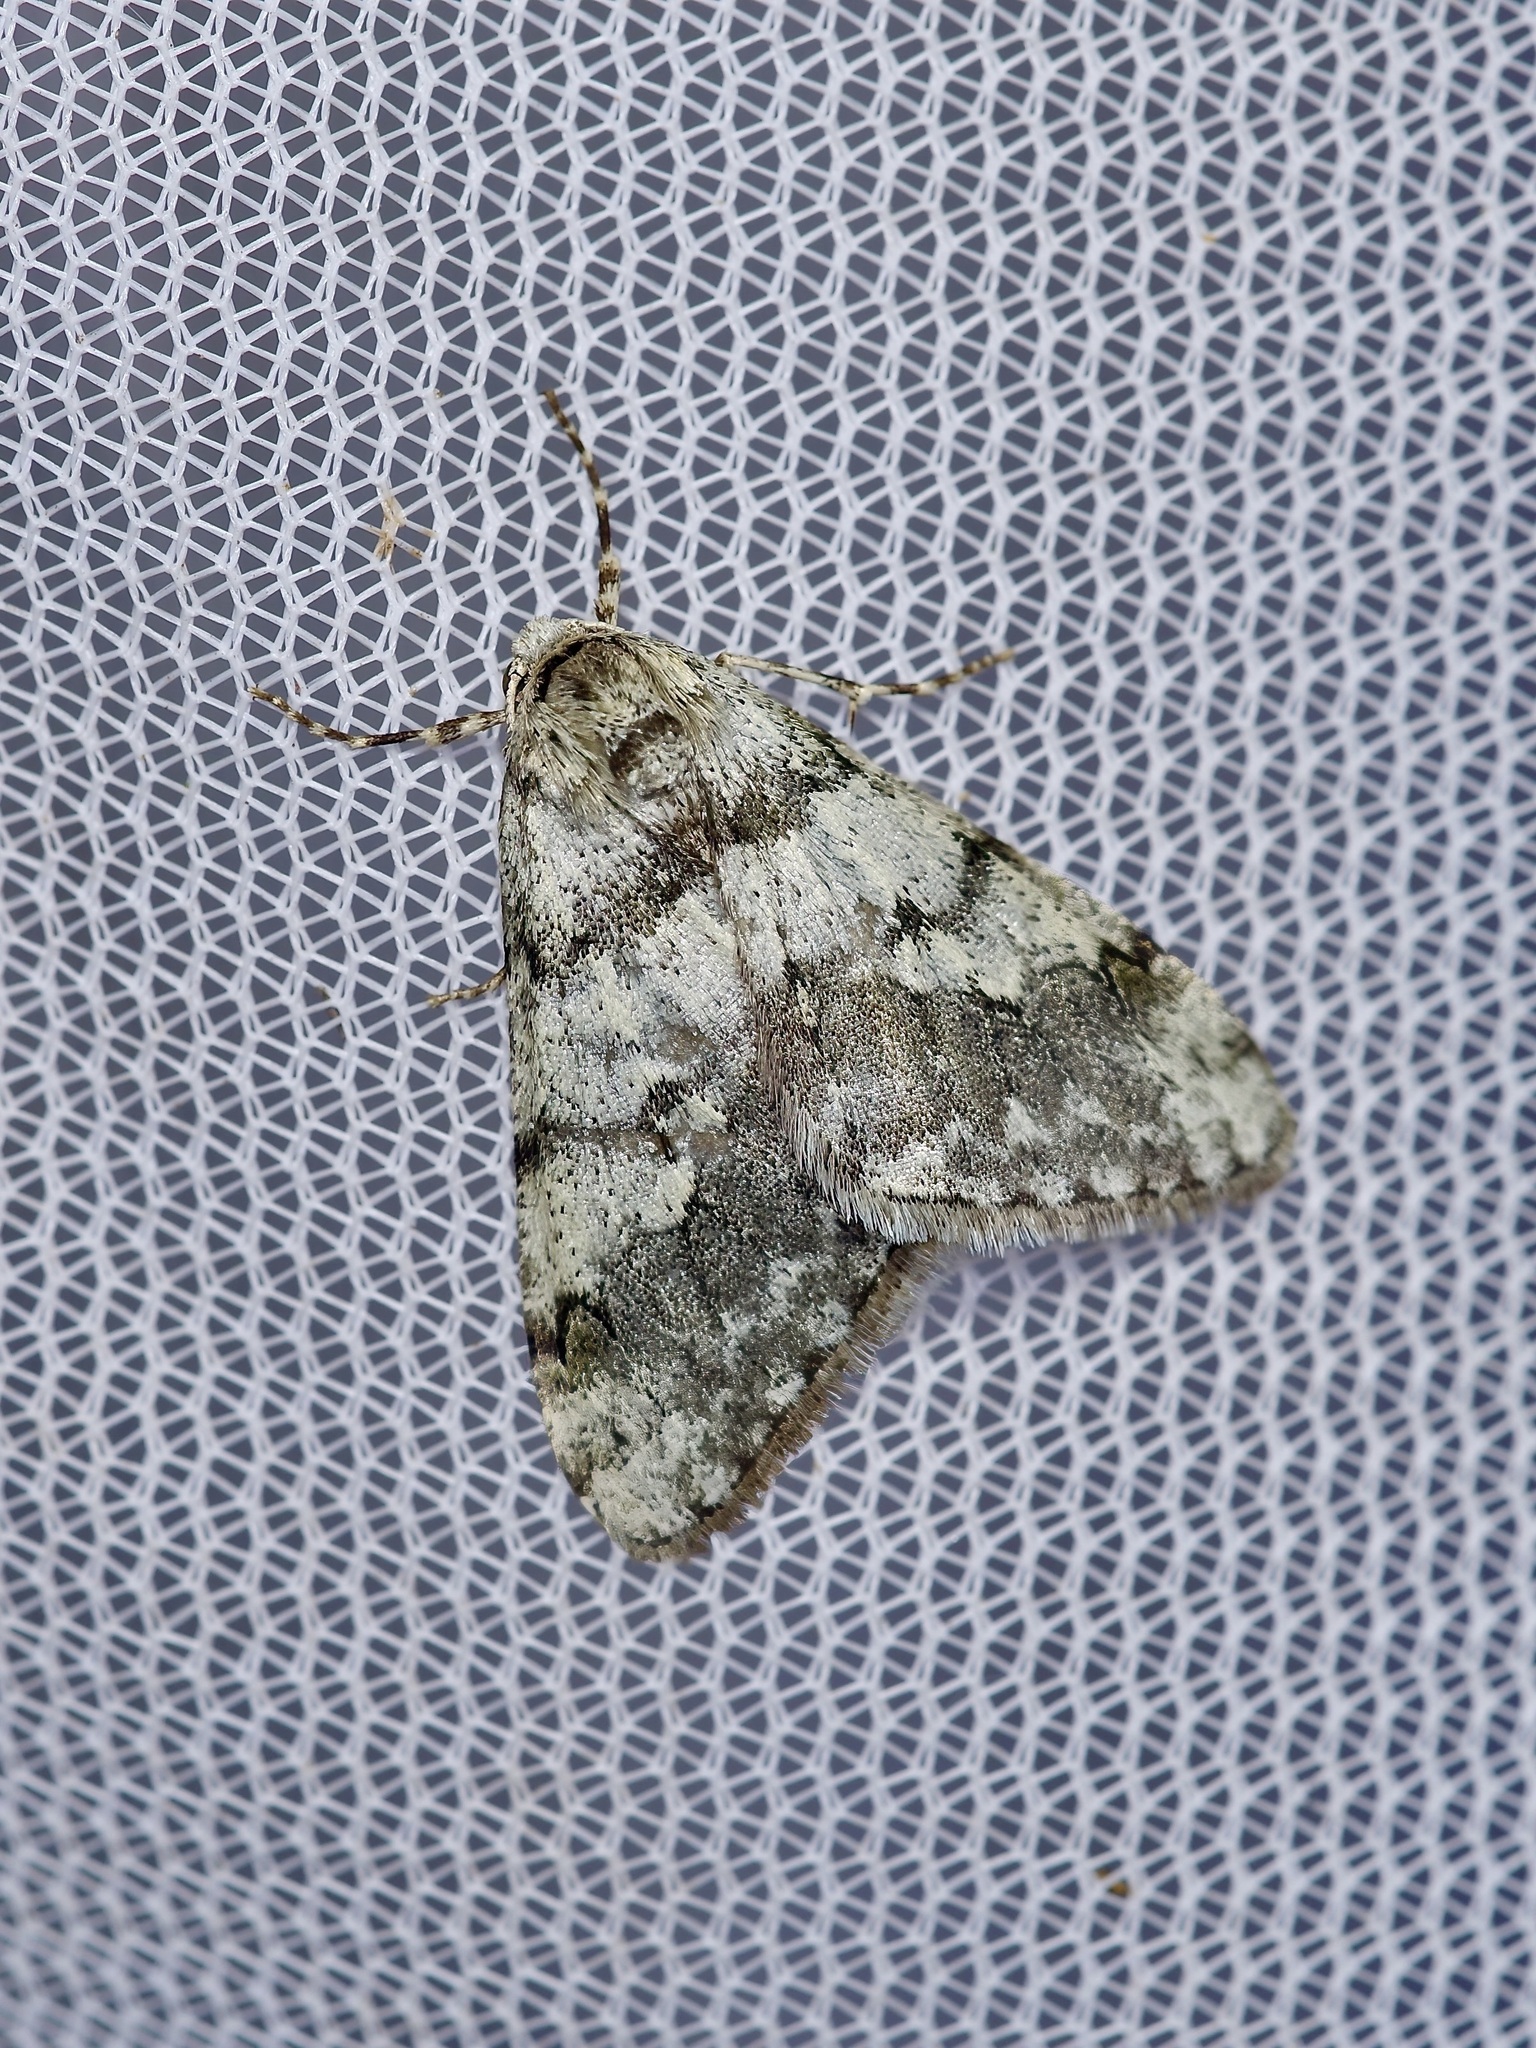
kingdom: Animalia
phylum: Arthropoda
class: Insecta
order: Lepidoptera
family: Geometridae
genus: Phigalia
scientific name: Phigalia strigataria
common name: Small phigalia
